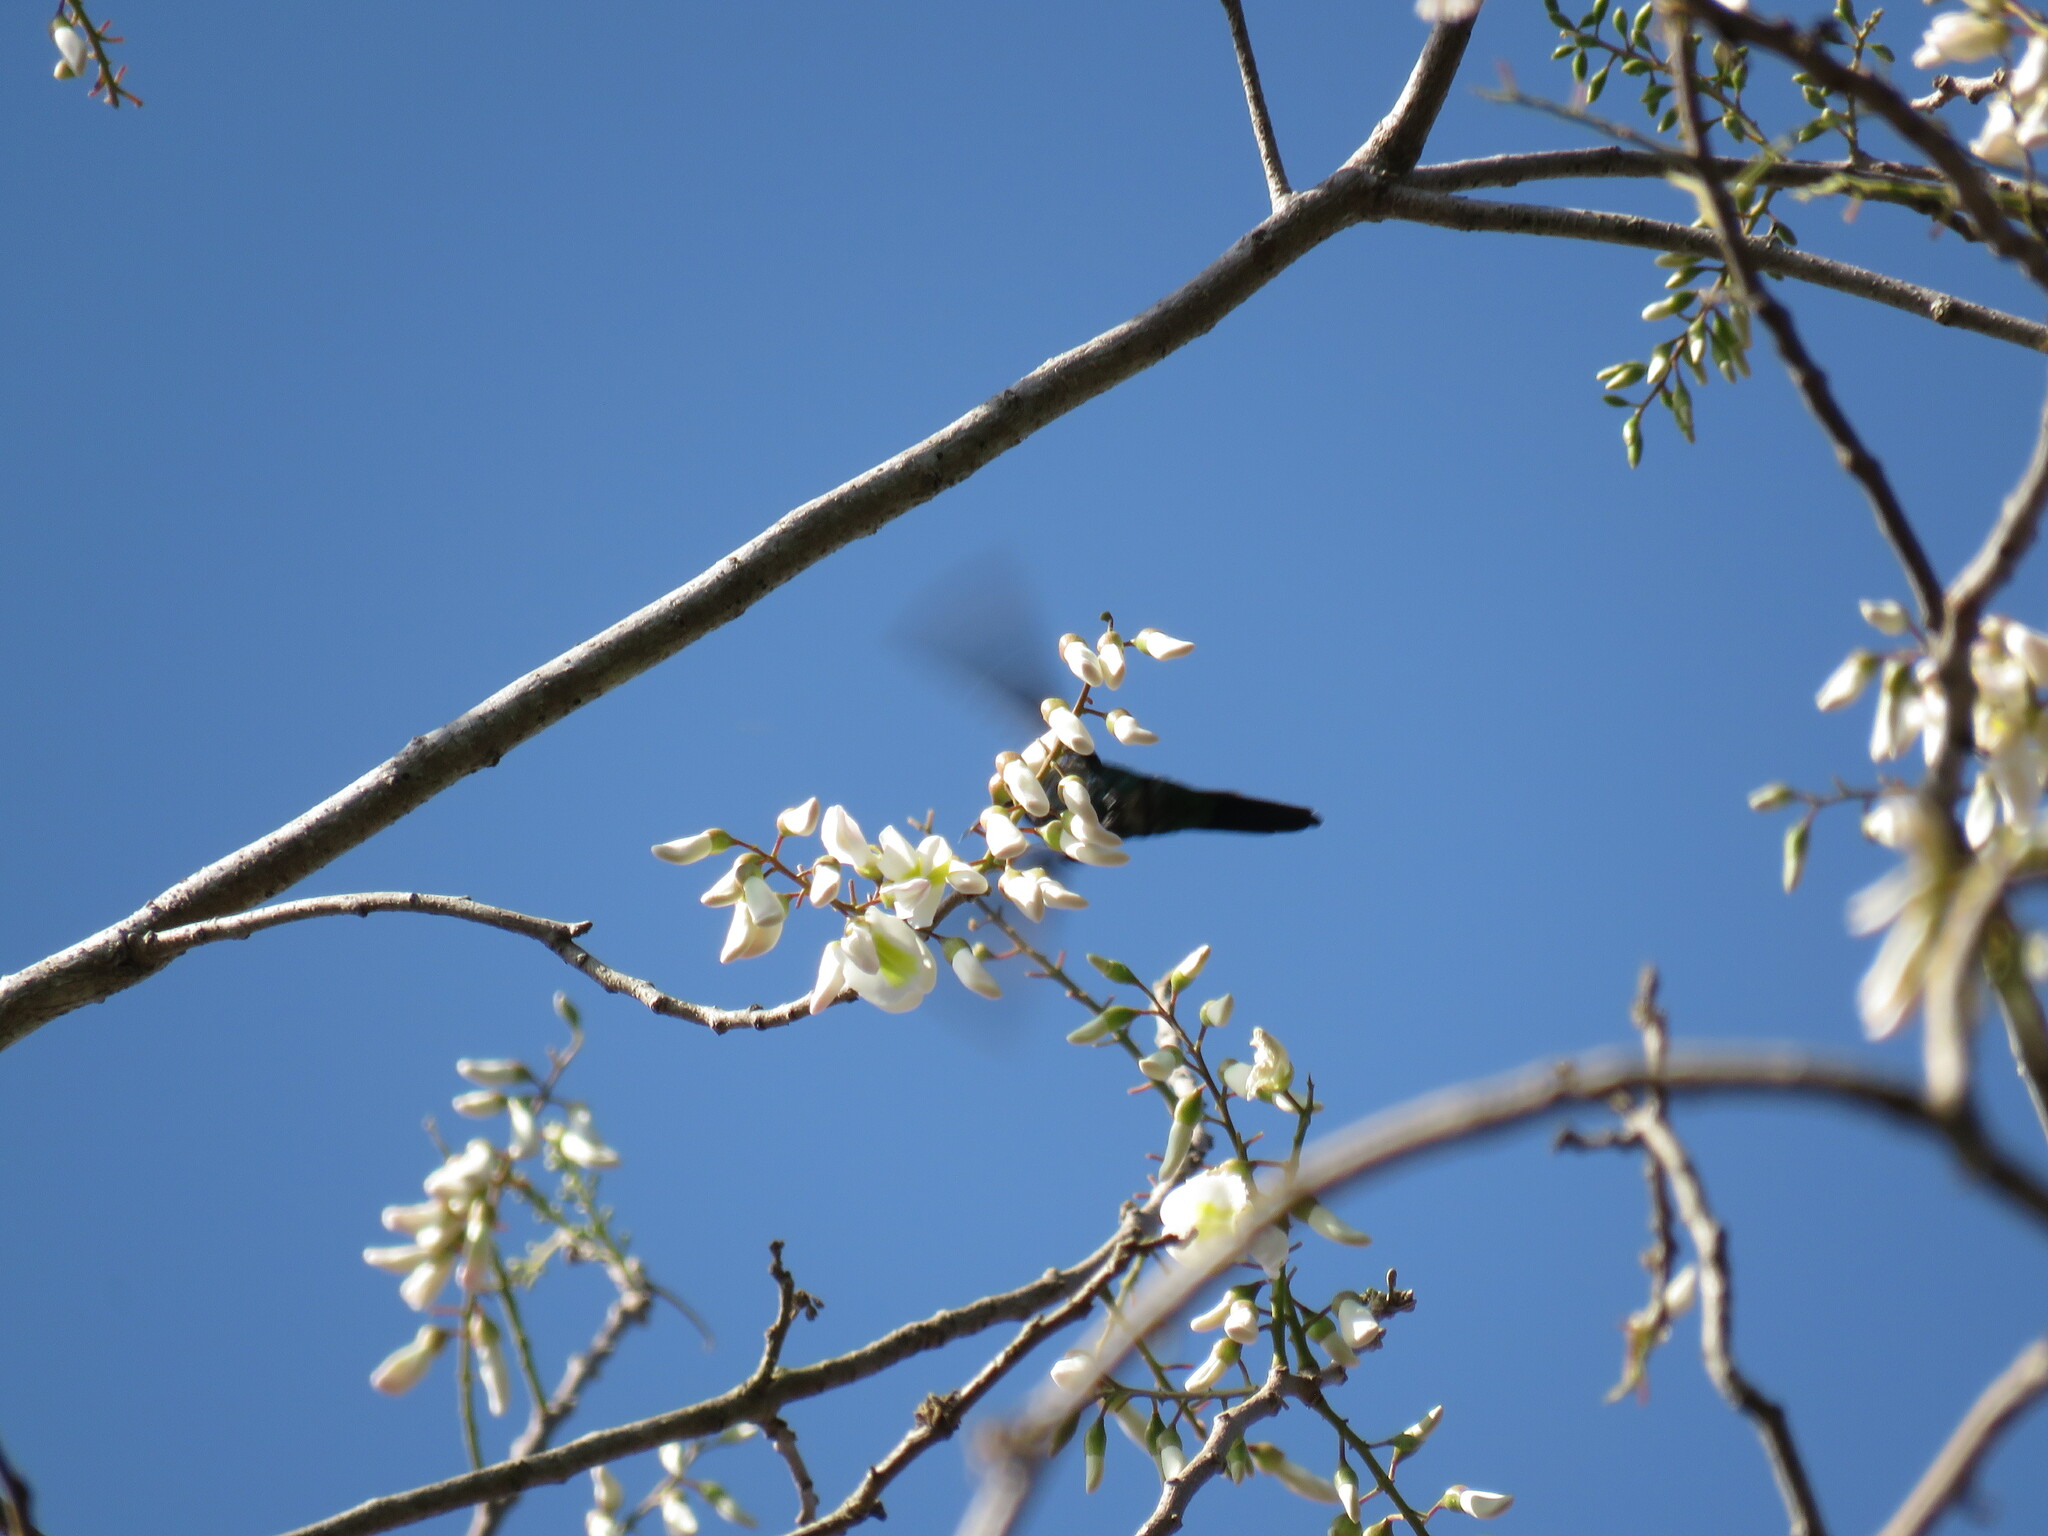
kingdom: Animalia
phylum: Chordata
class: Aves
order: Apodiformes
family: Trochilidae
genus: Cynanthus
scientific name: Cynanthus canivetii
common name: Canivet's emerald
